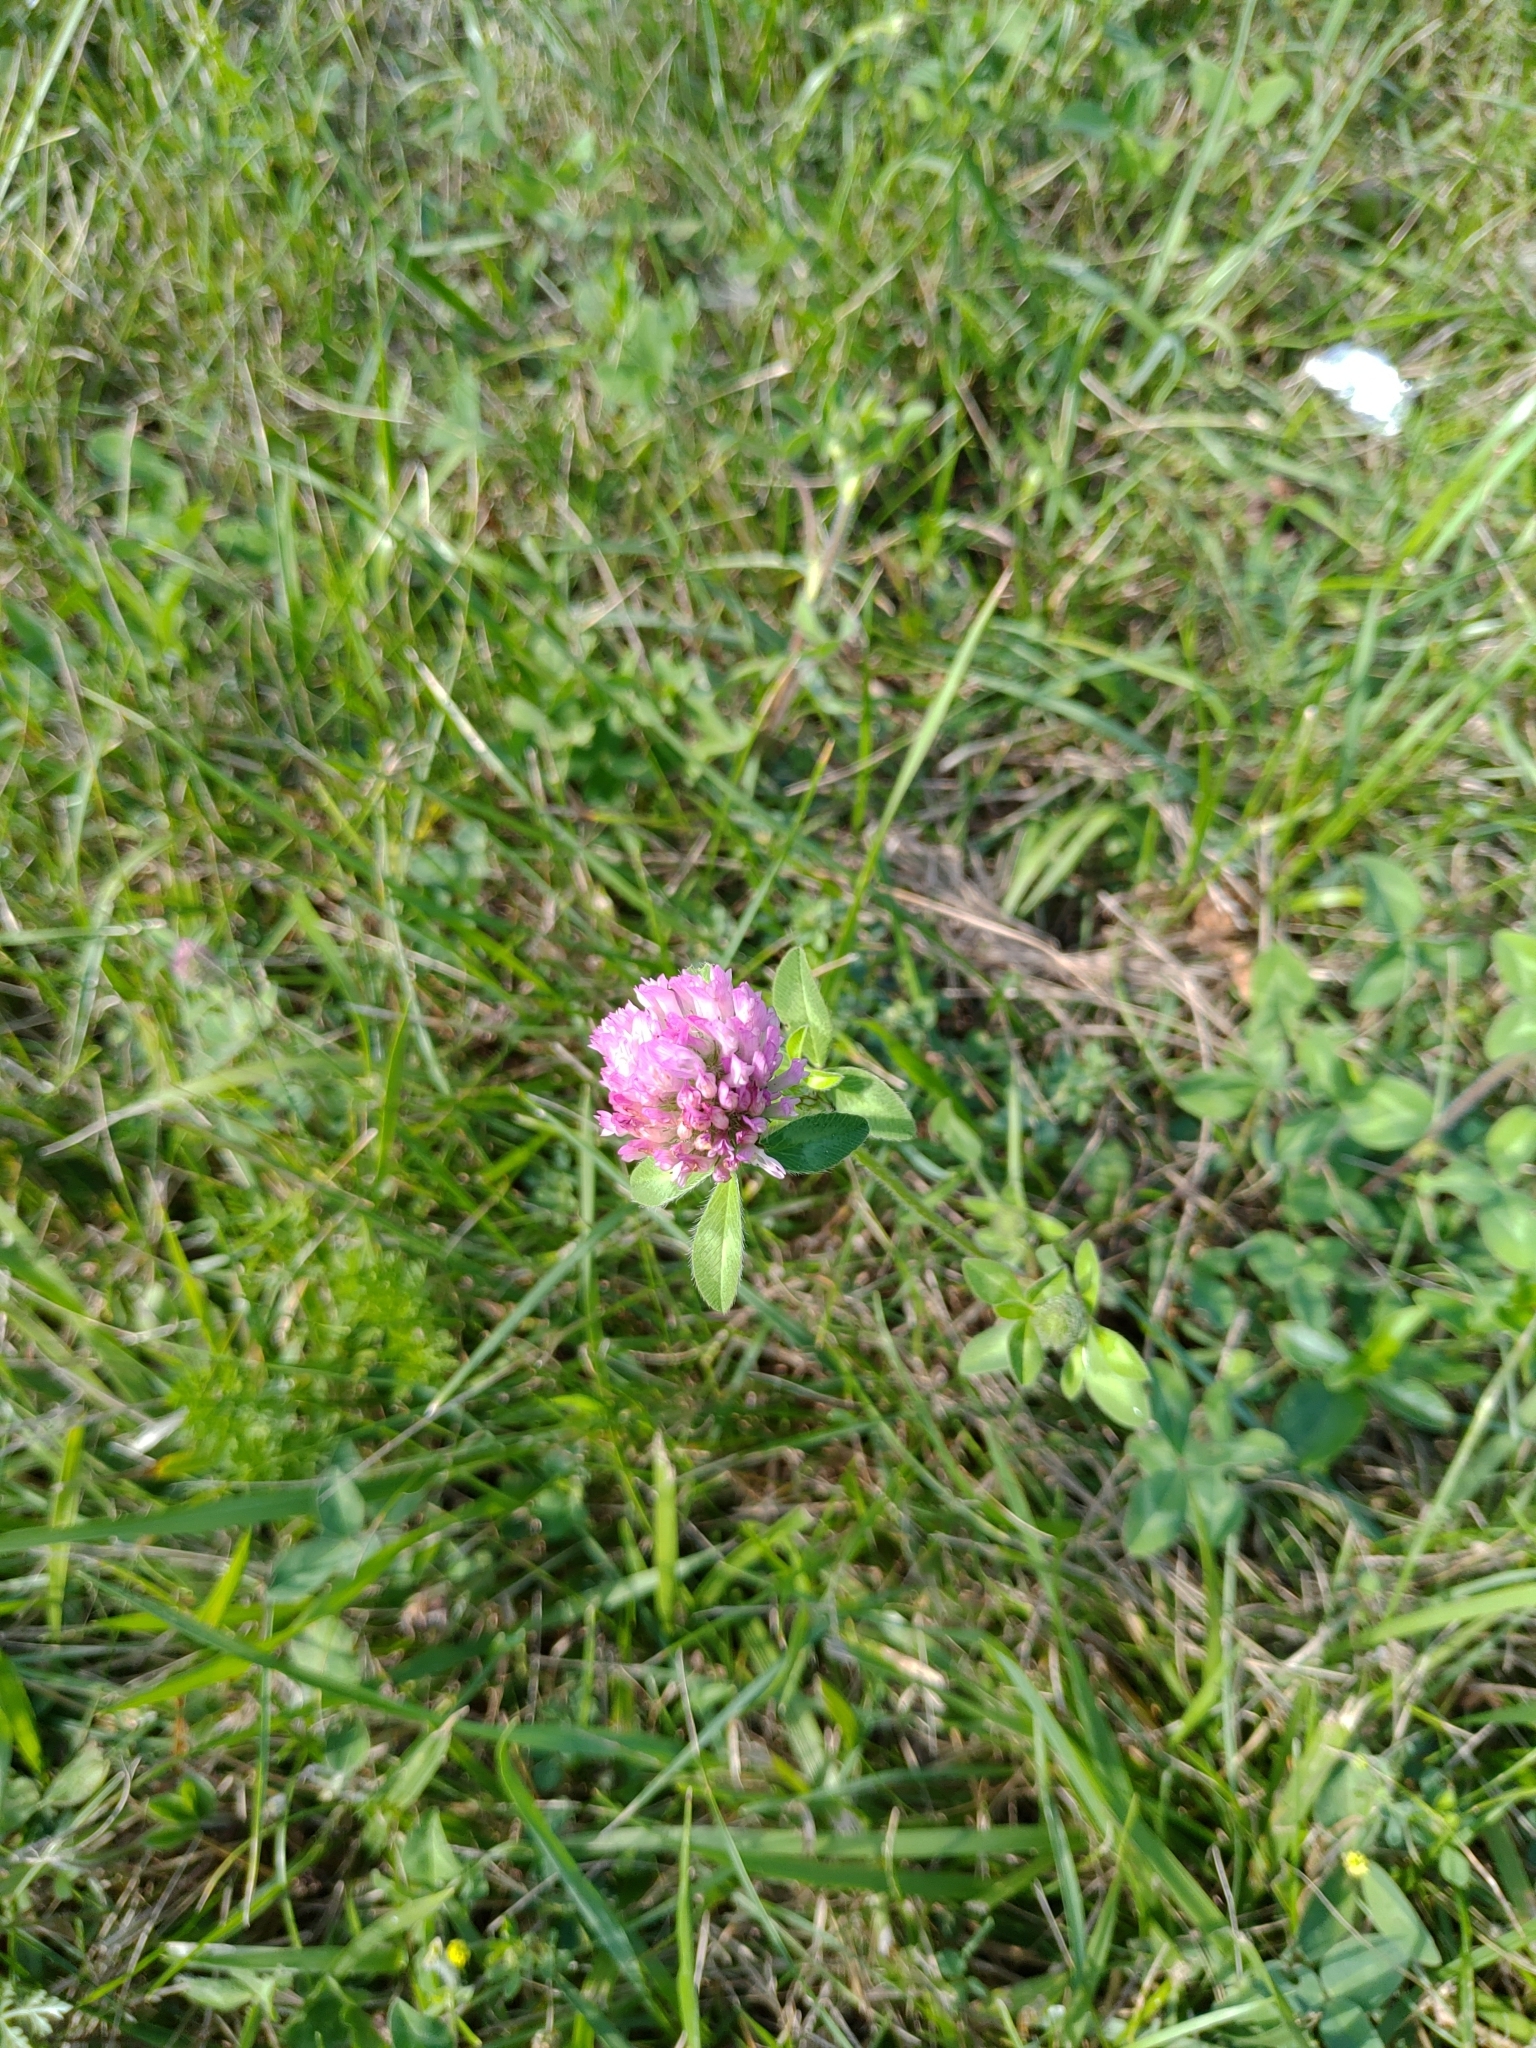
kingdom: Plantae
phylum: Tracheophyta
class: Magnoliopsida
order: Fabales
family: Fabaceae
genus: Trifolium
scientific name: Trifolium pratense
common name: Red clover
